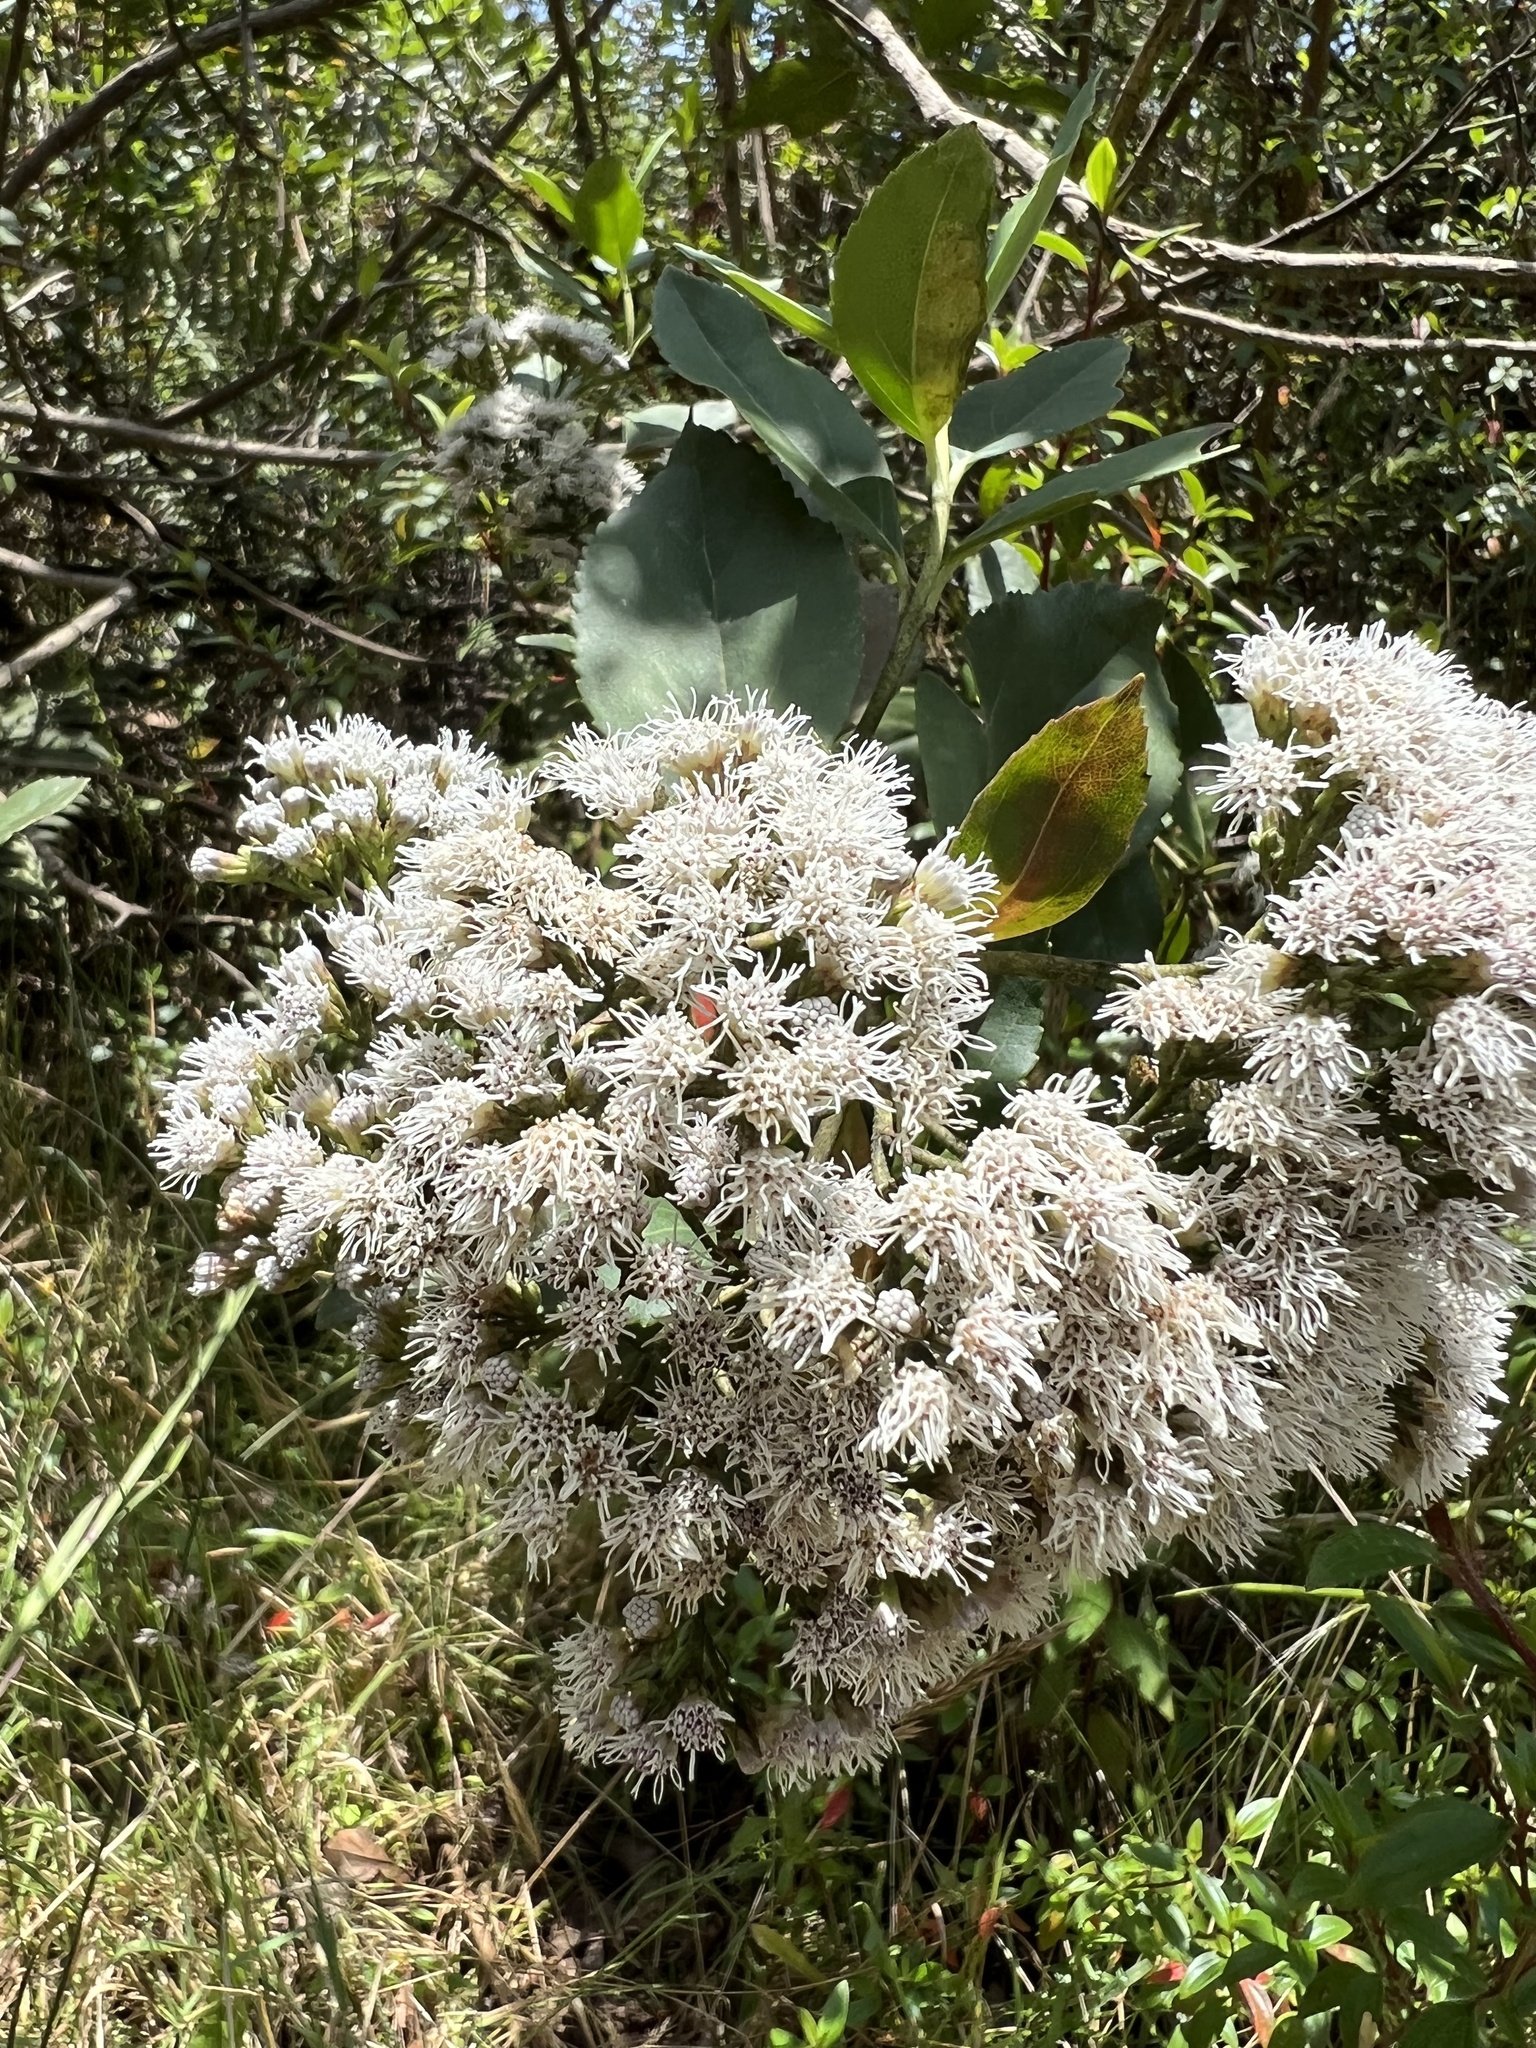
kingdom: Plantae
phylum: Tracheophyta
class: Magnoliopsida
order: Asterales
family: Asteraceae
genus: Ageratina
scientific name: Ageratina tinifolia
